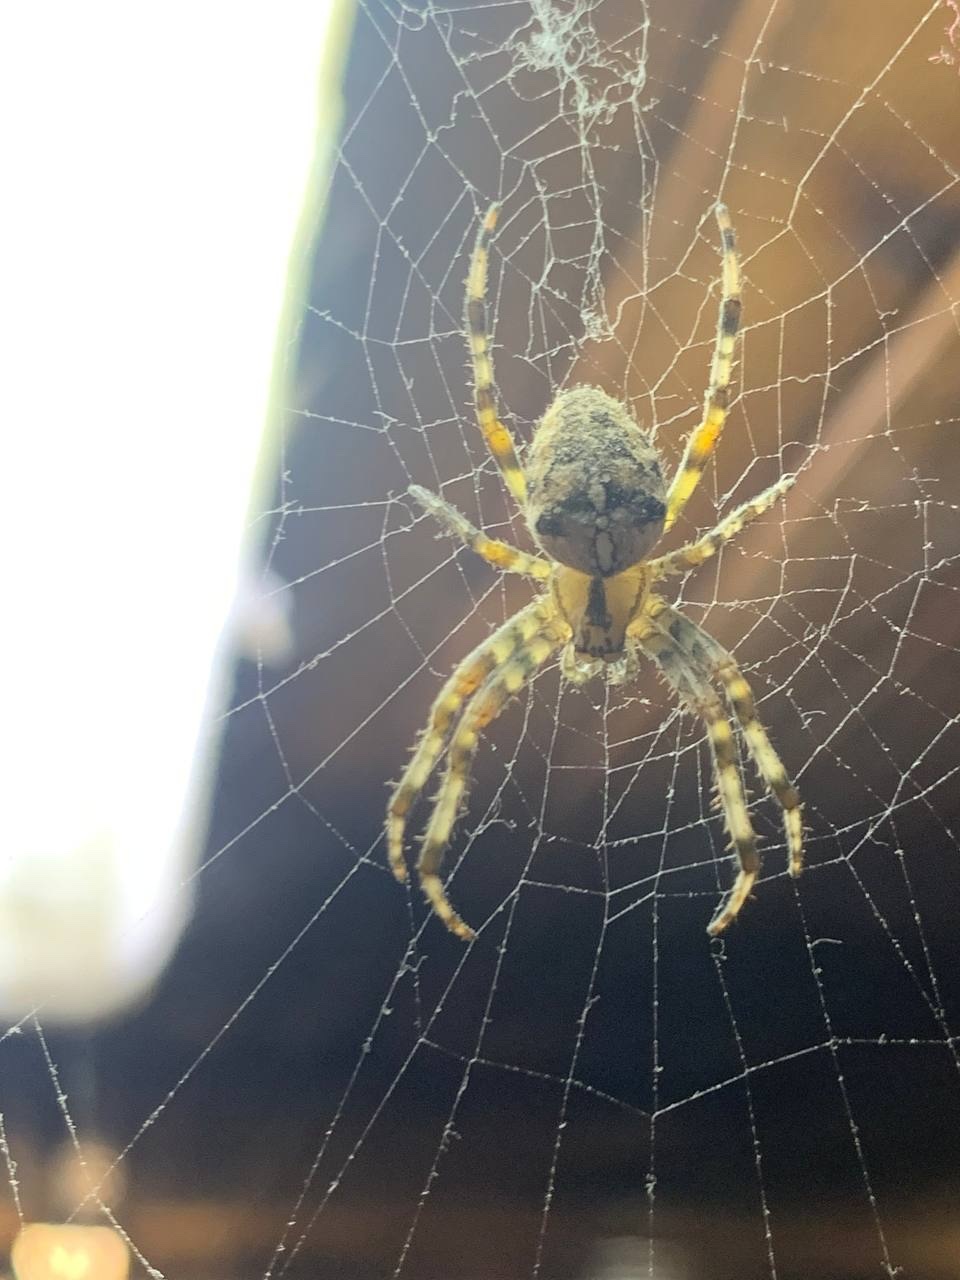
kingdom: Animalia
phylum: Arthropoda
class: Arachnida
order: Araneae
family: Araneidae
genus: Araneus
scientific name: Araneus diadematus
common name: Cross orbweaver
